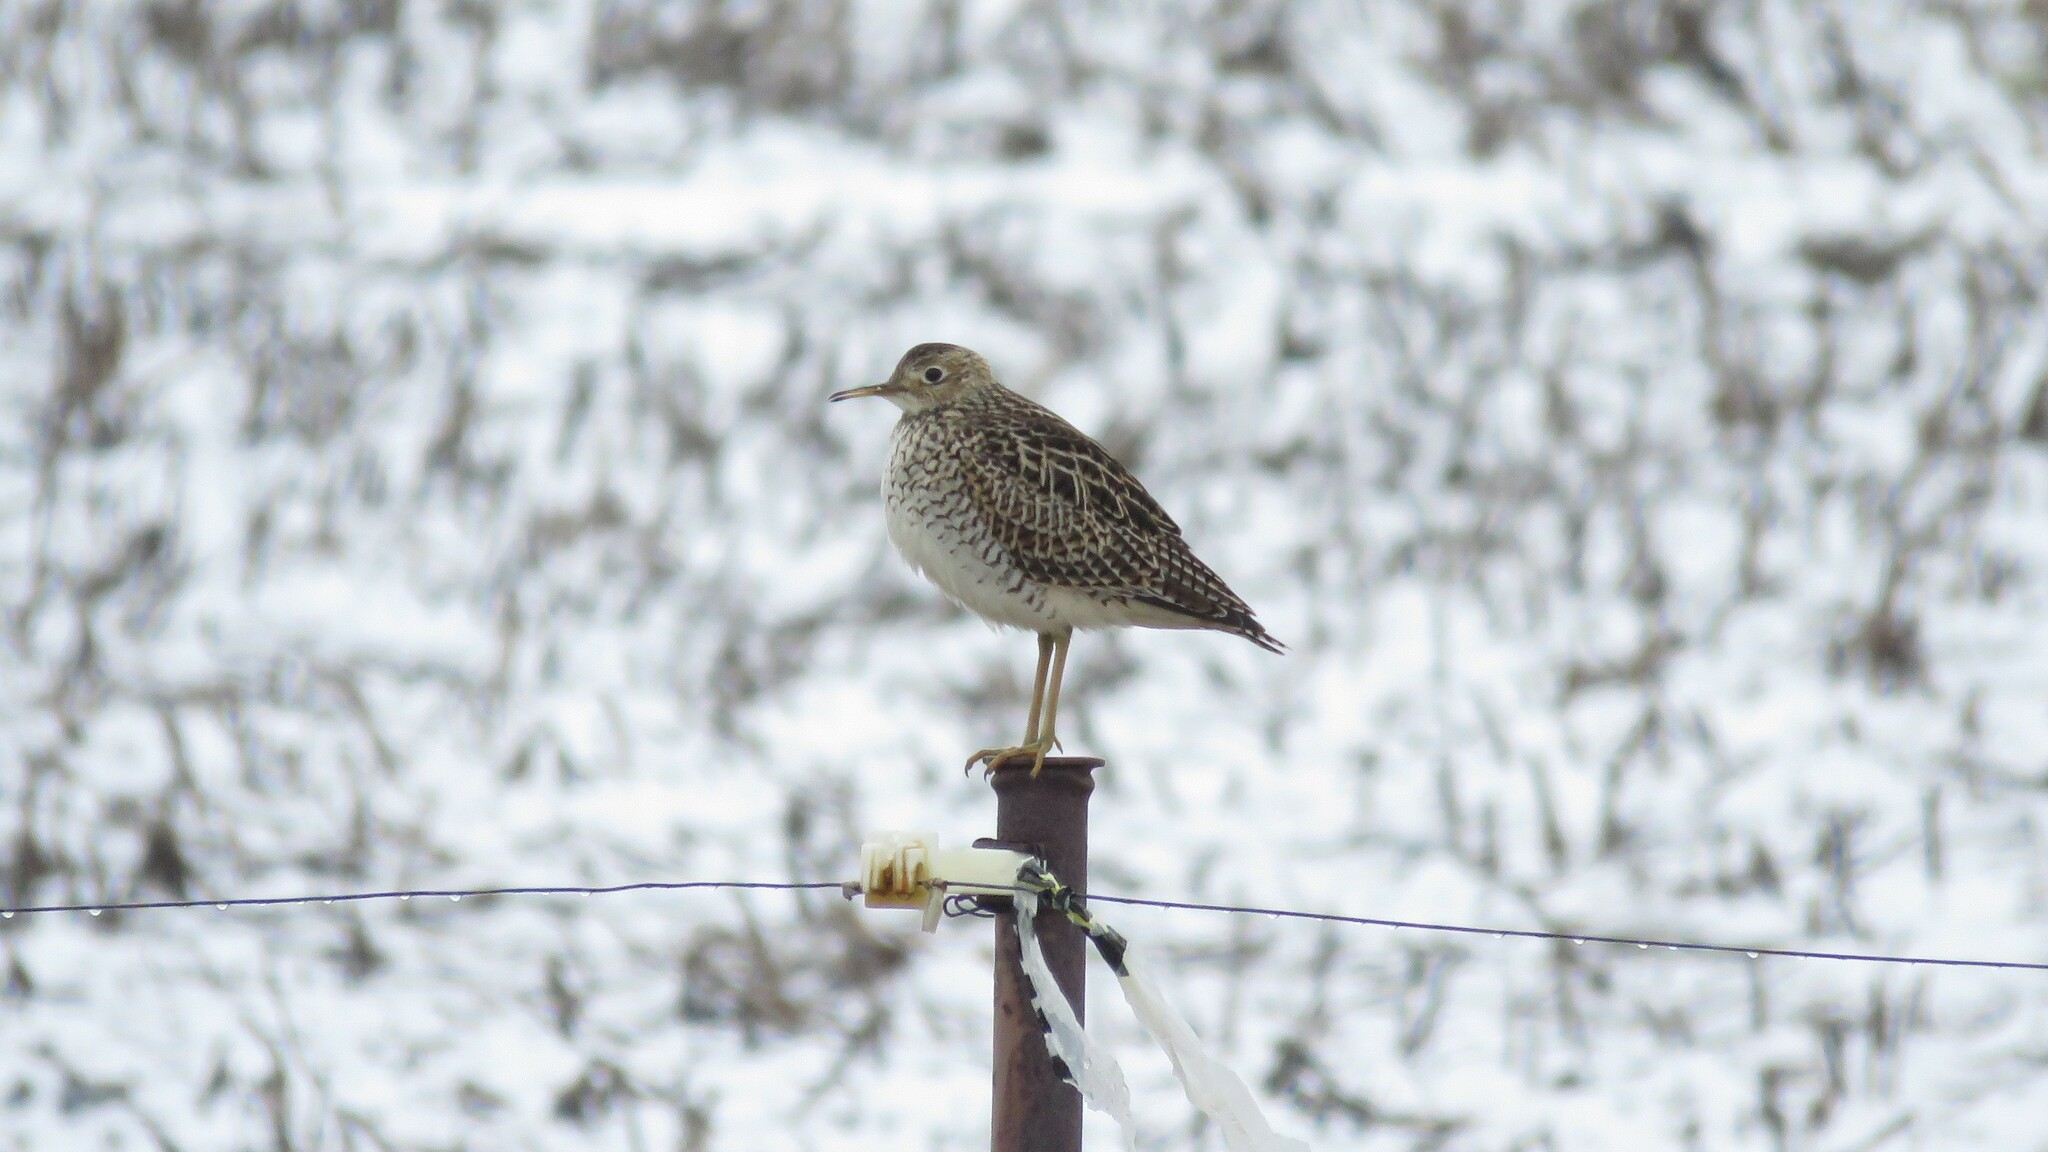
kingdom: Animalia
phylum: Chordata
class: Aves
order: Charadriiformes
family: Scolopacidae
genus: Bartramia
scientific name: Bartramia longicauda
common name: Upland sandpiper
